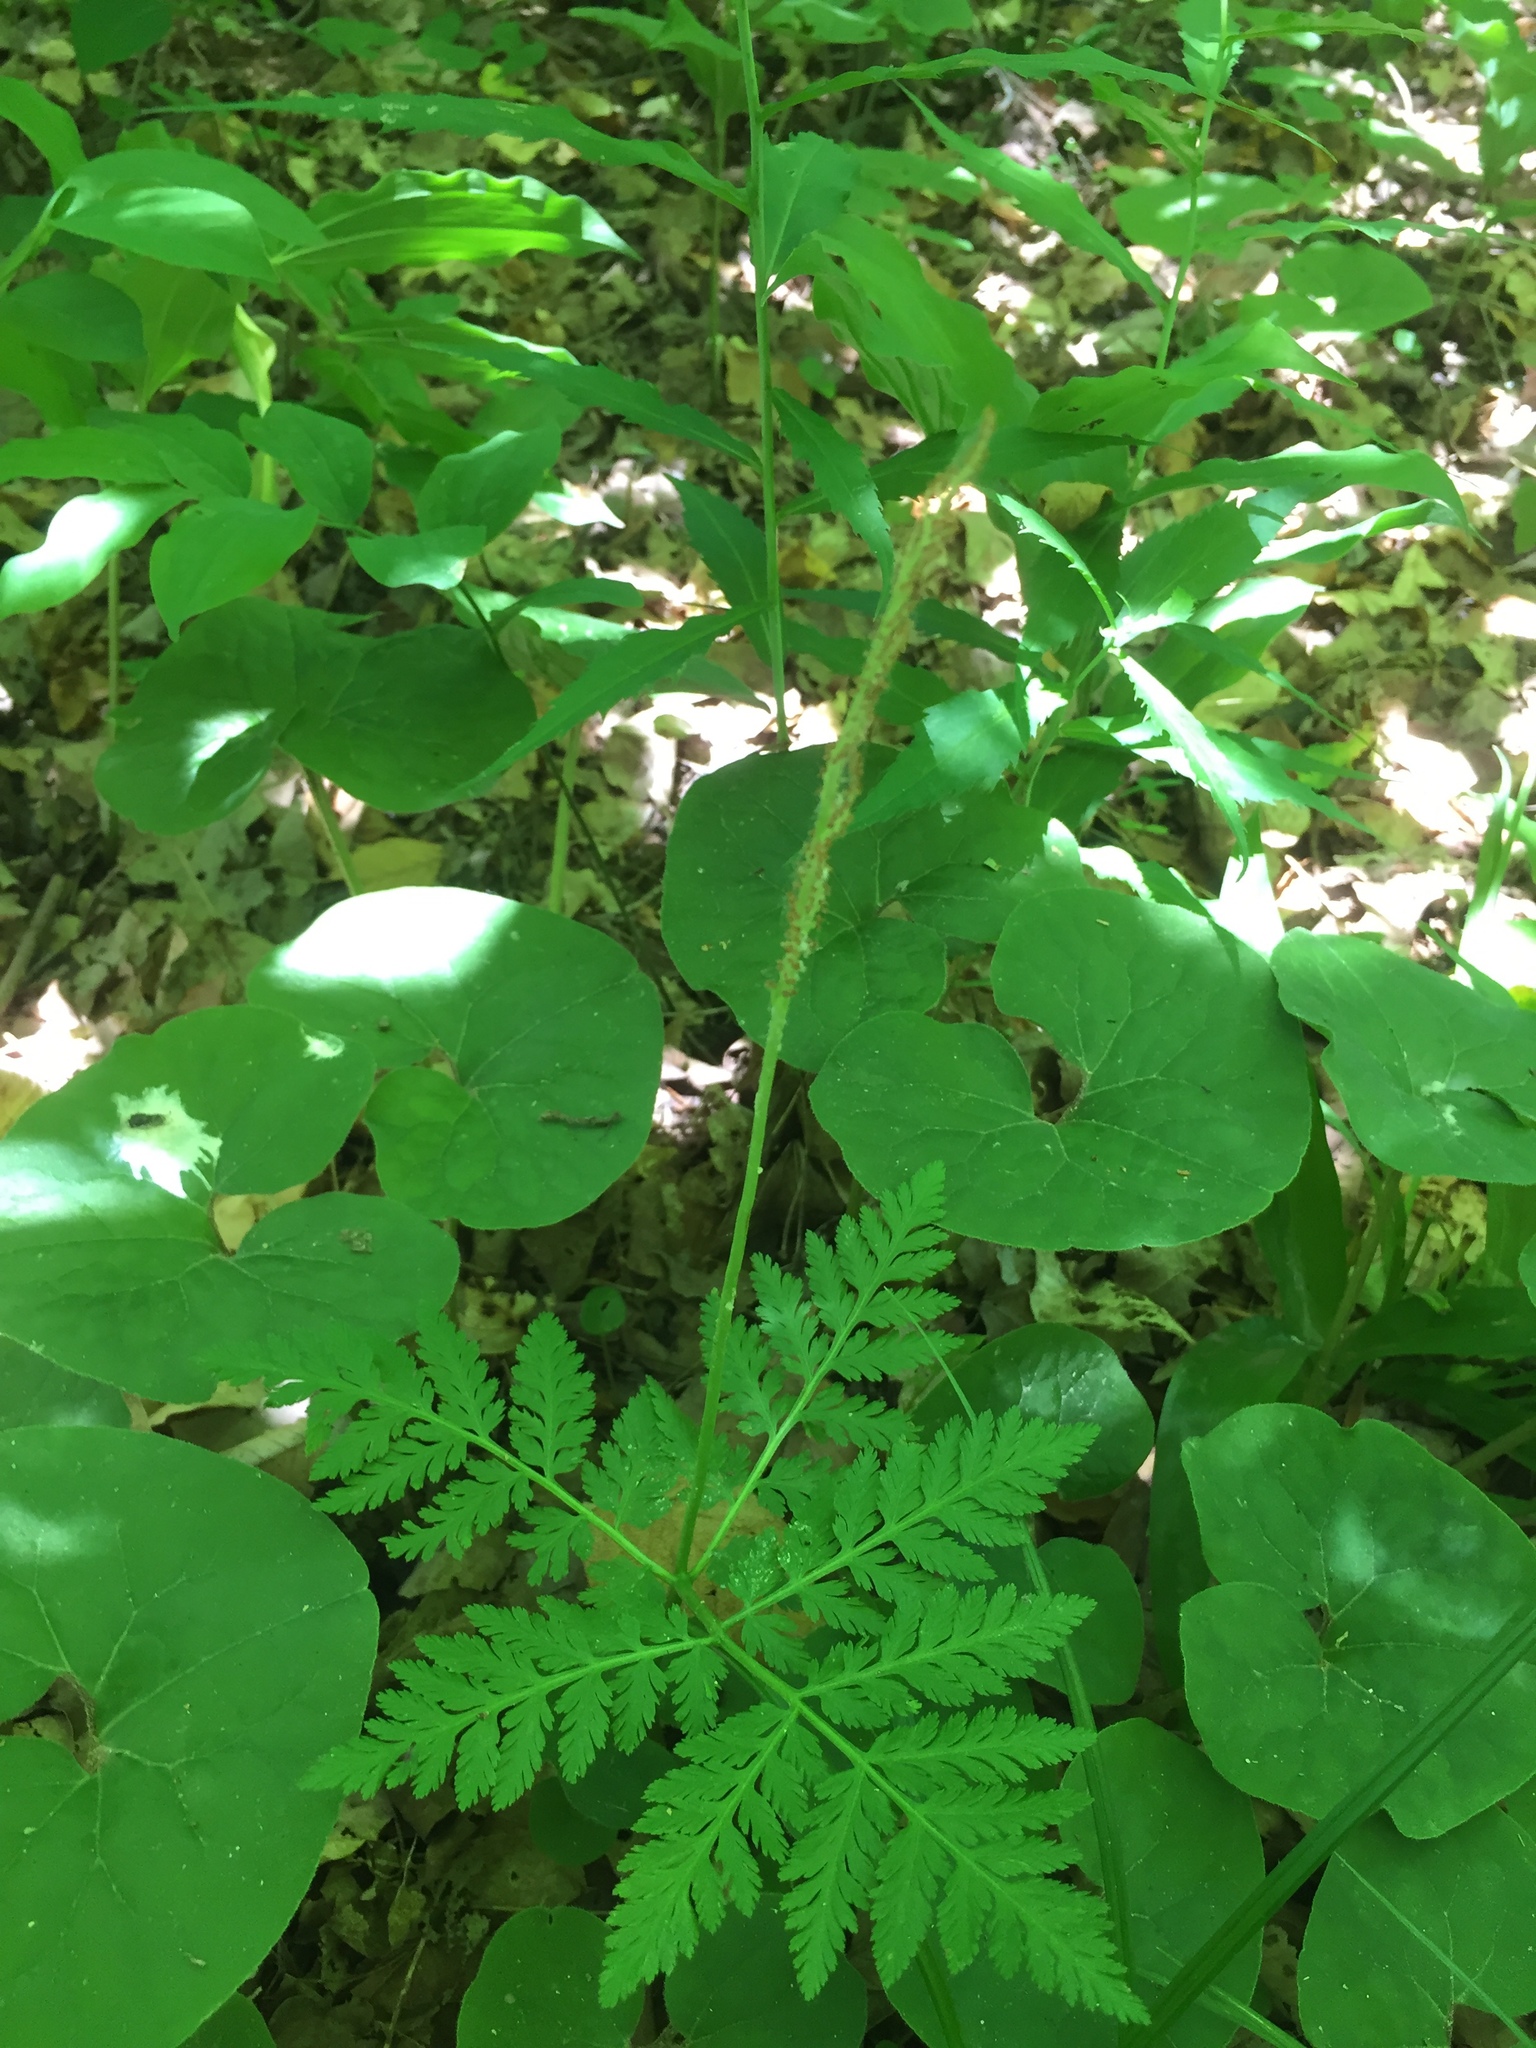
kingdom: Plantae
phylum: Tracheophyta
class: Polypodiopsida
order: Ophioglossales
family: Ophioglossaceae
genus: Botrypus
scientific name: Botrypus virginianus
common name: Common grapefern
